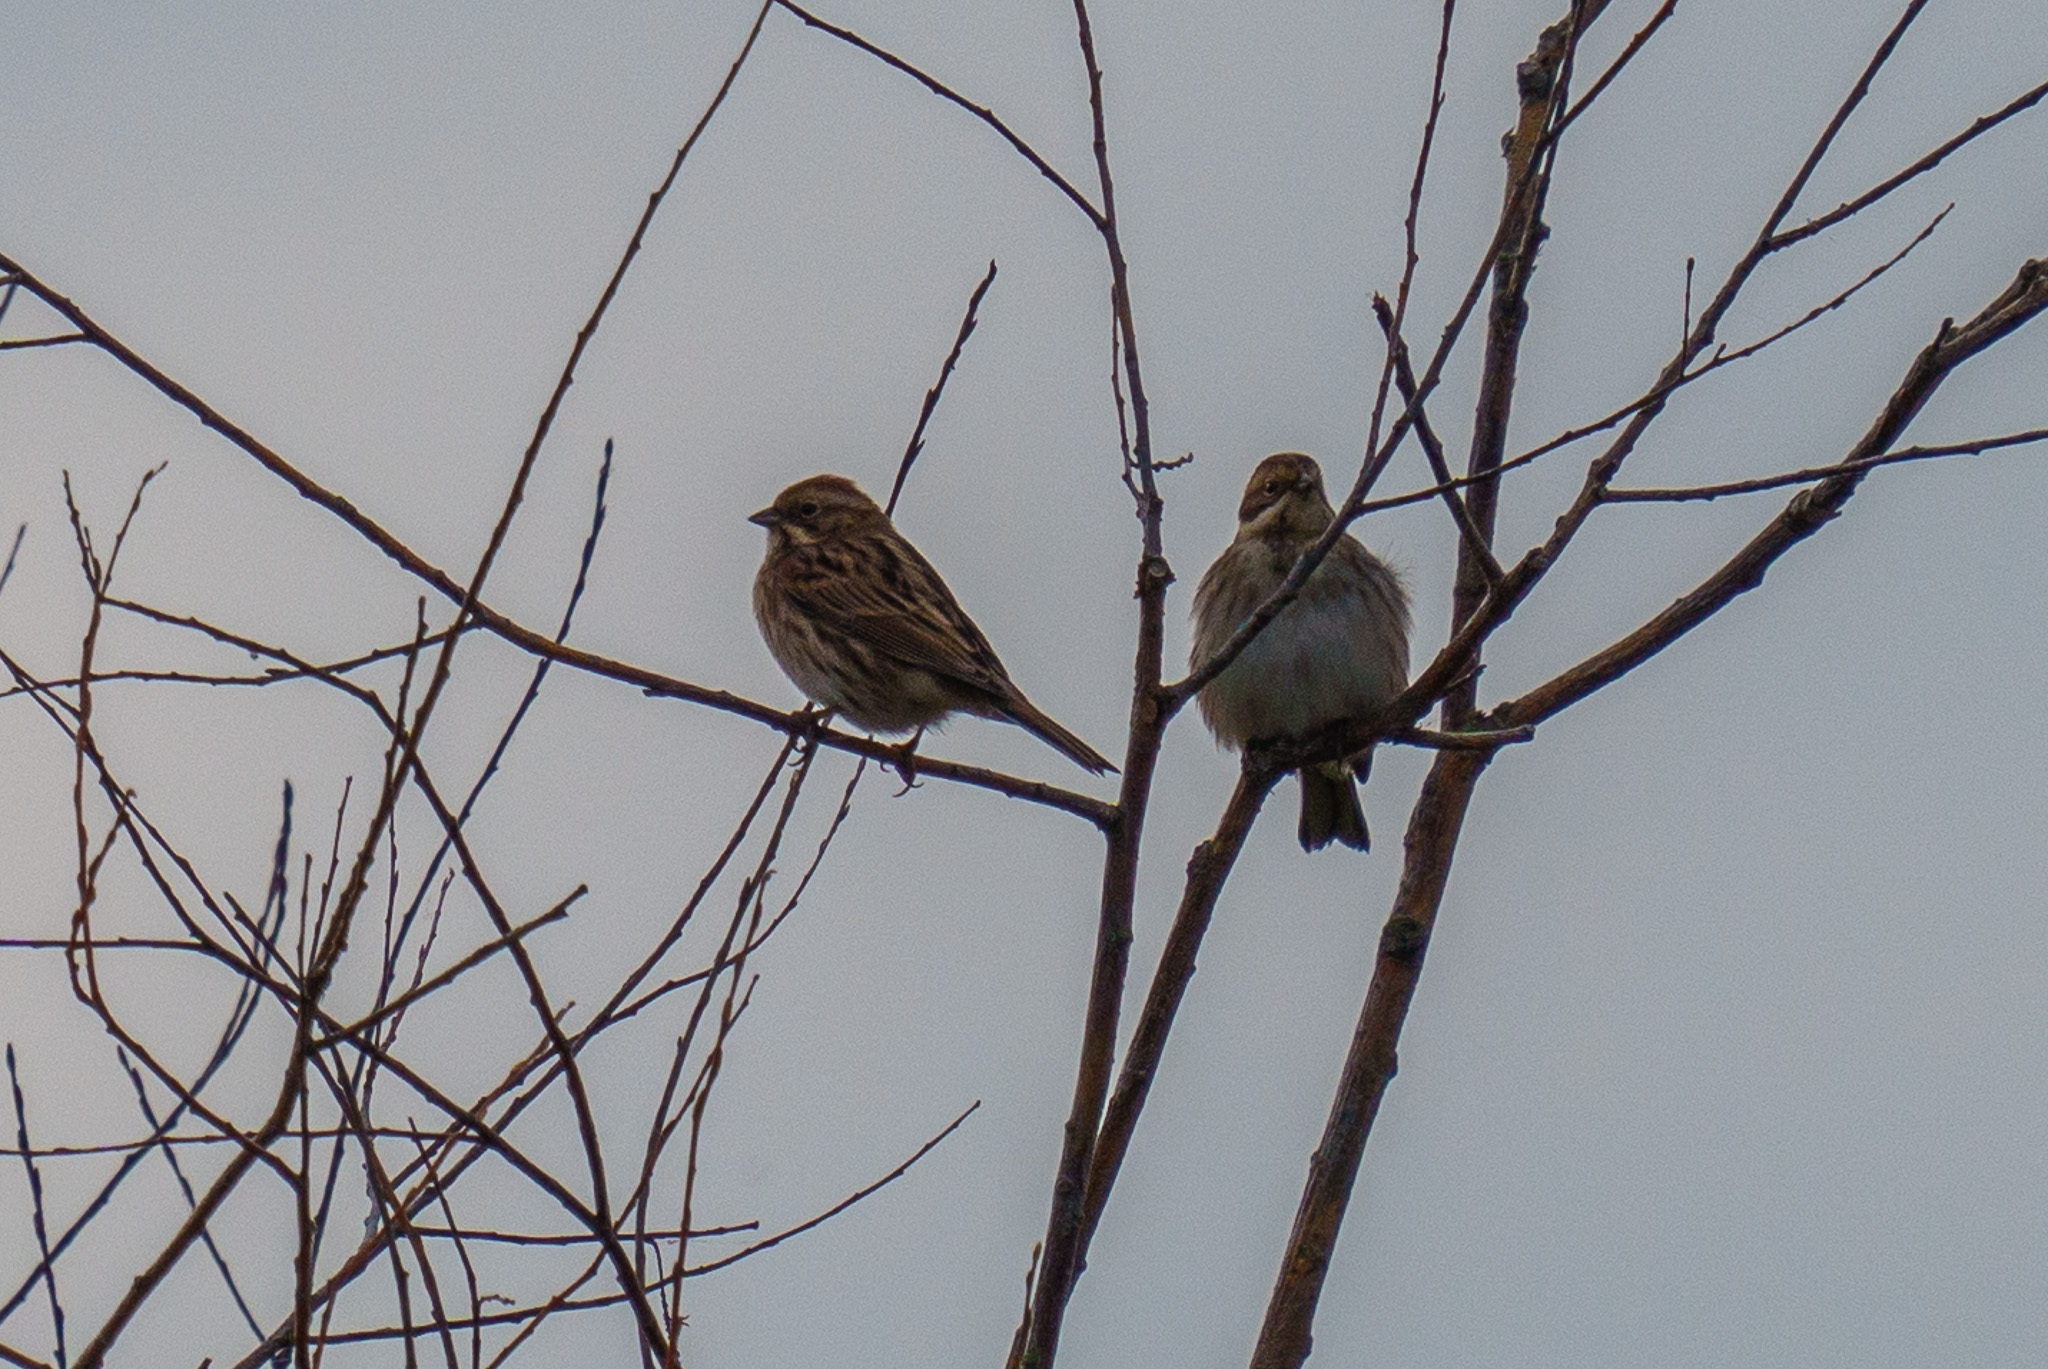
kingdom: Animalia
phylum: Chordata
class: Aves
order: Passeriformes
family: Emberizidae
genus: Emberiza
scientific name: Emberiza schoeniclus
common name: Reed bunting
